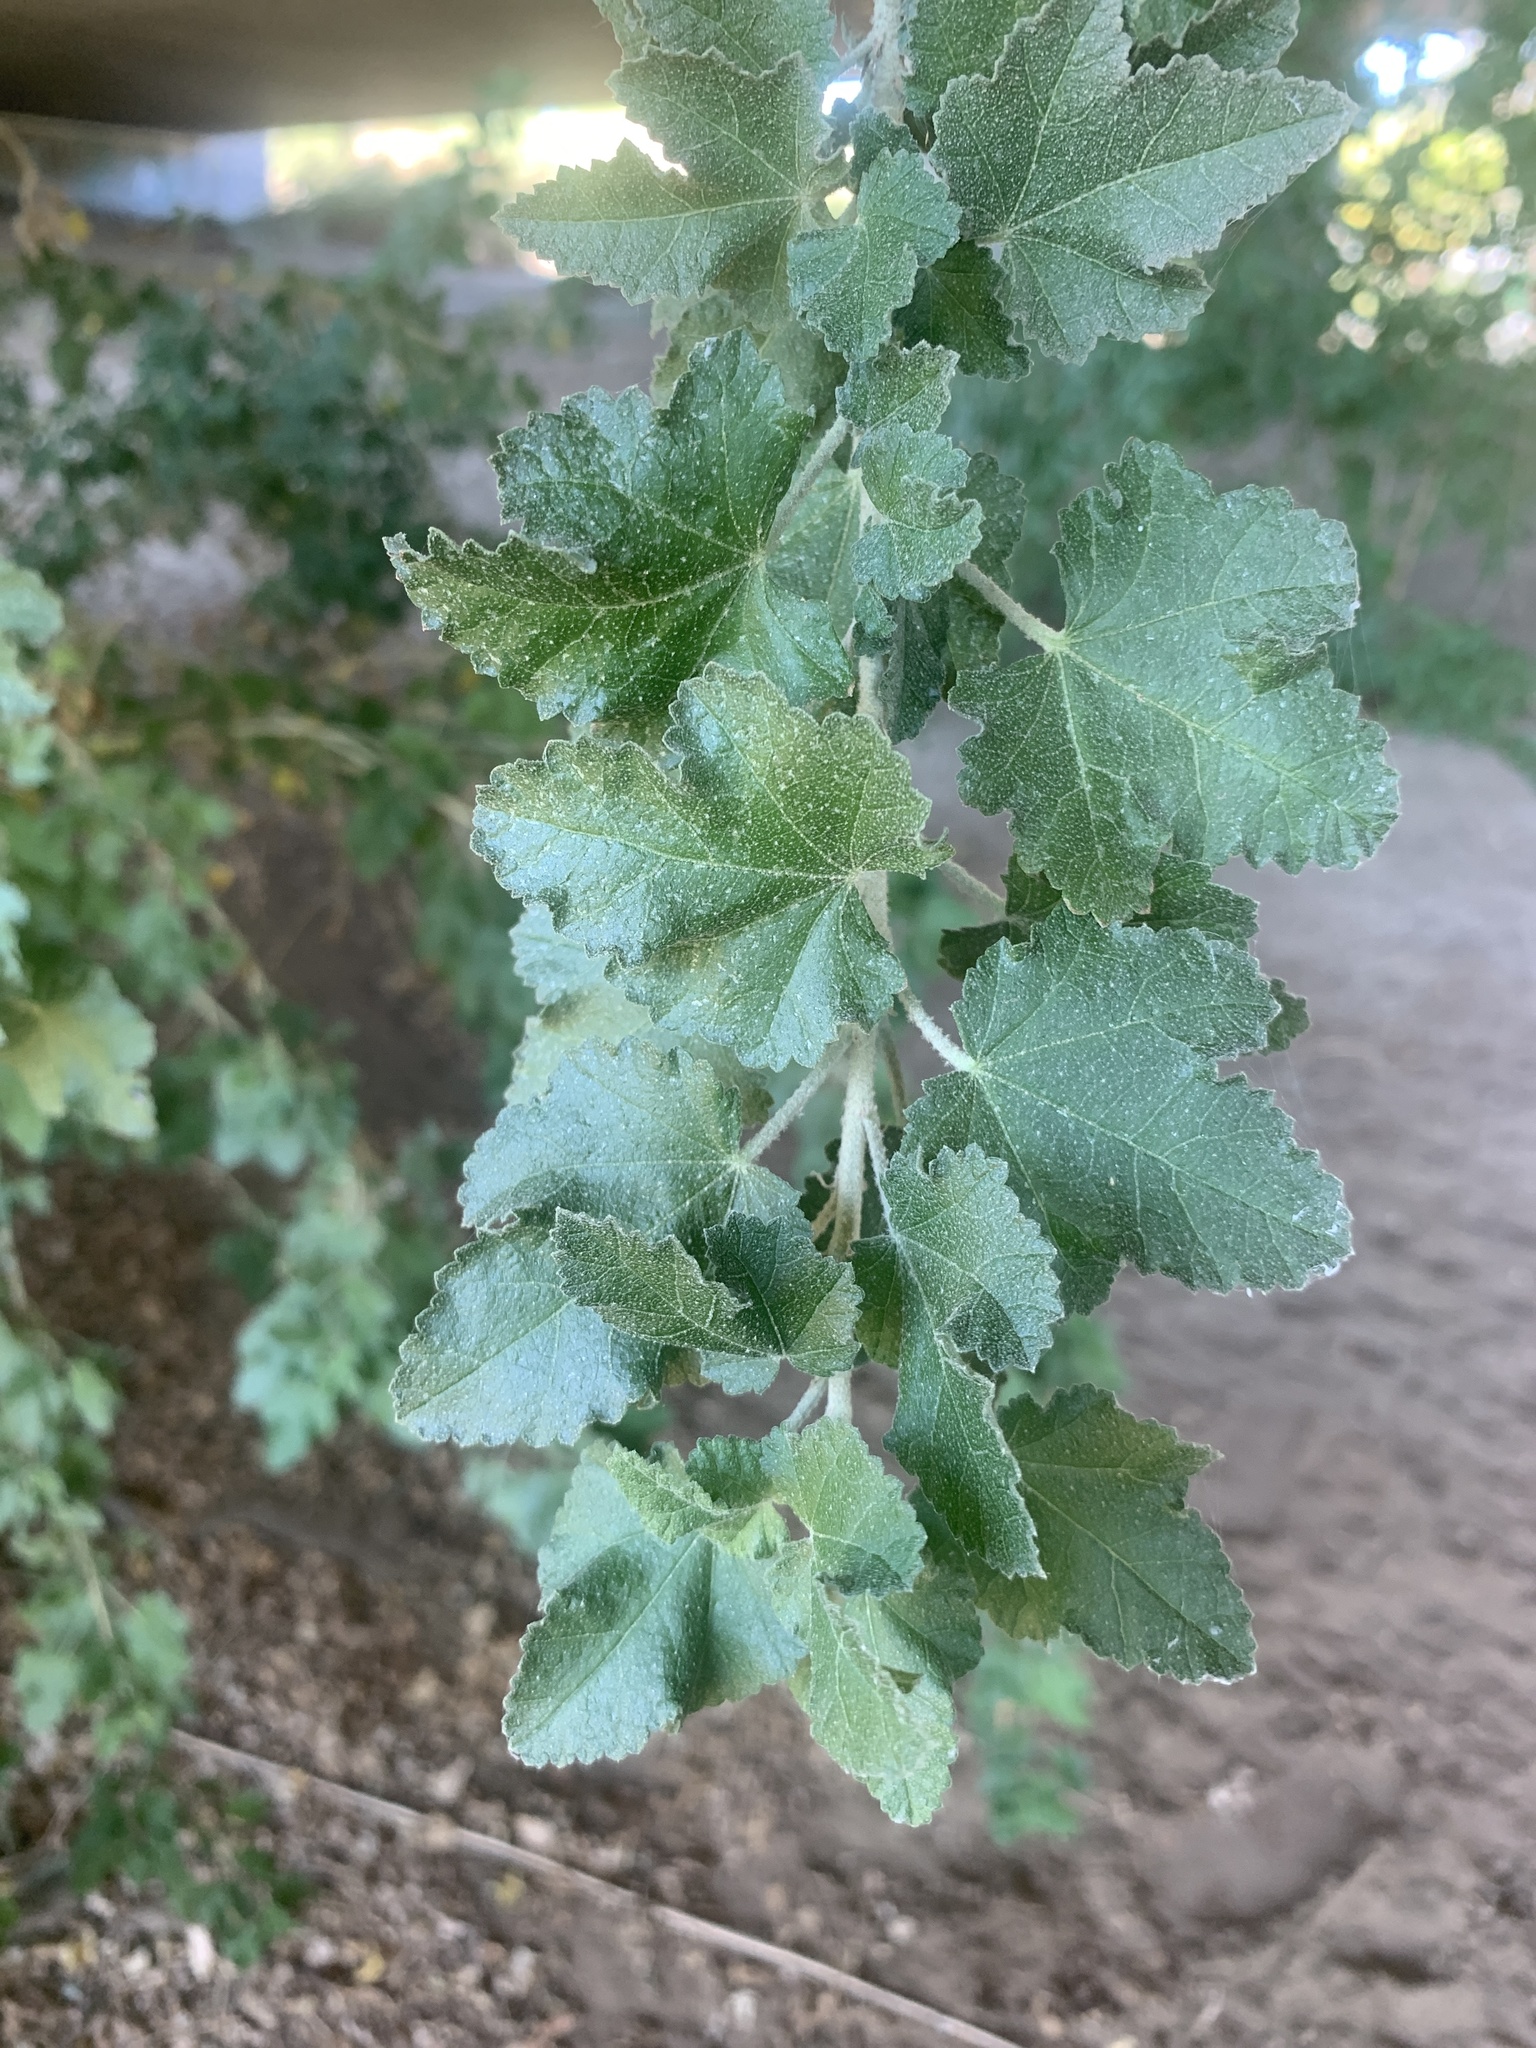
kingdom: Plantae
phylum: Tracheophyta
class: Magnoliopsida
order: Malvales
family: Malvaceae
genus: Malacothamnus
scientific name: Malacothamnus fasciculatus
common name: Sant cruz island bush-mallow
